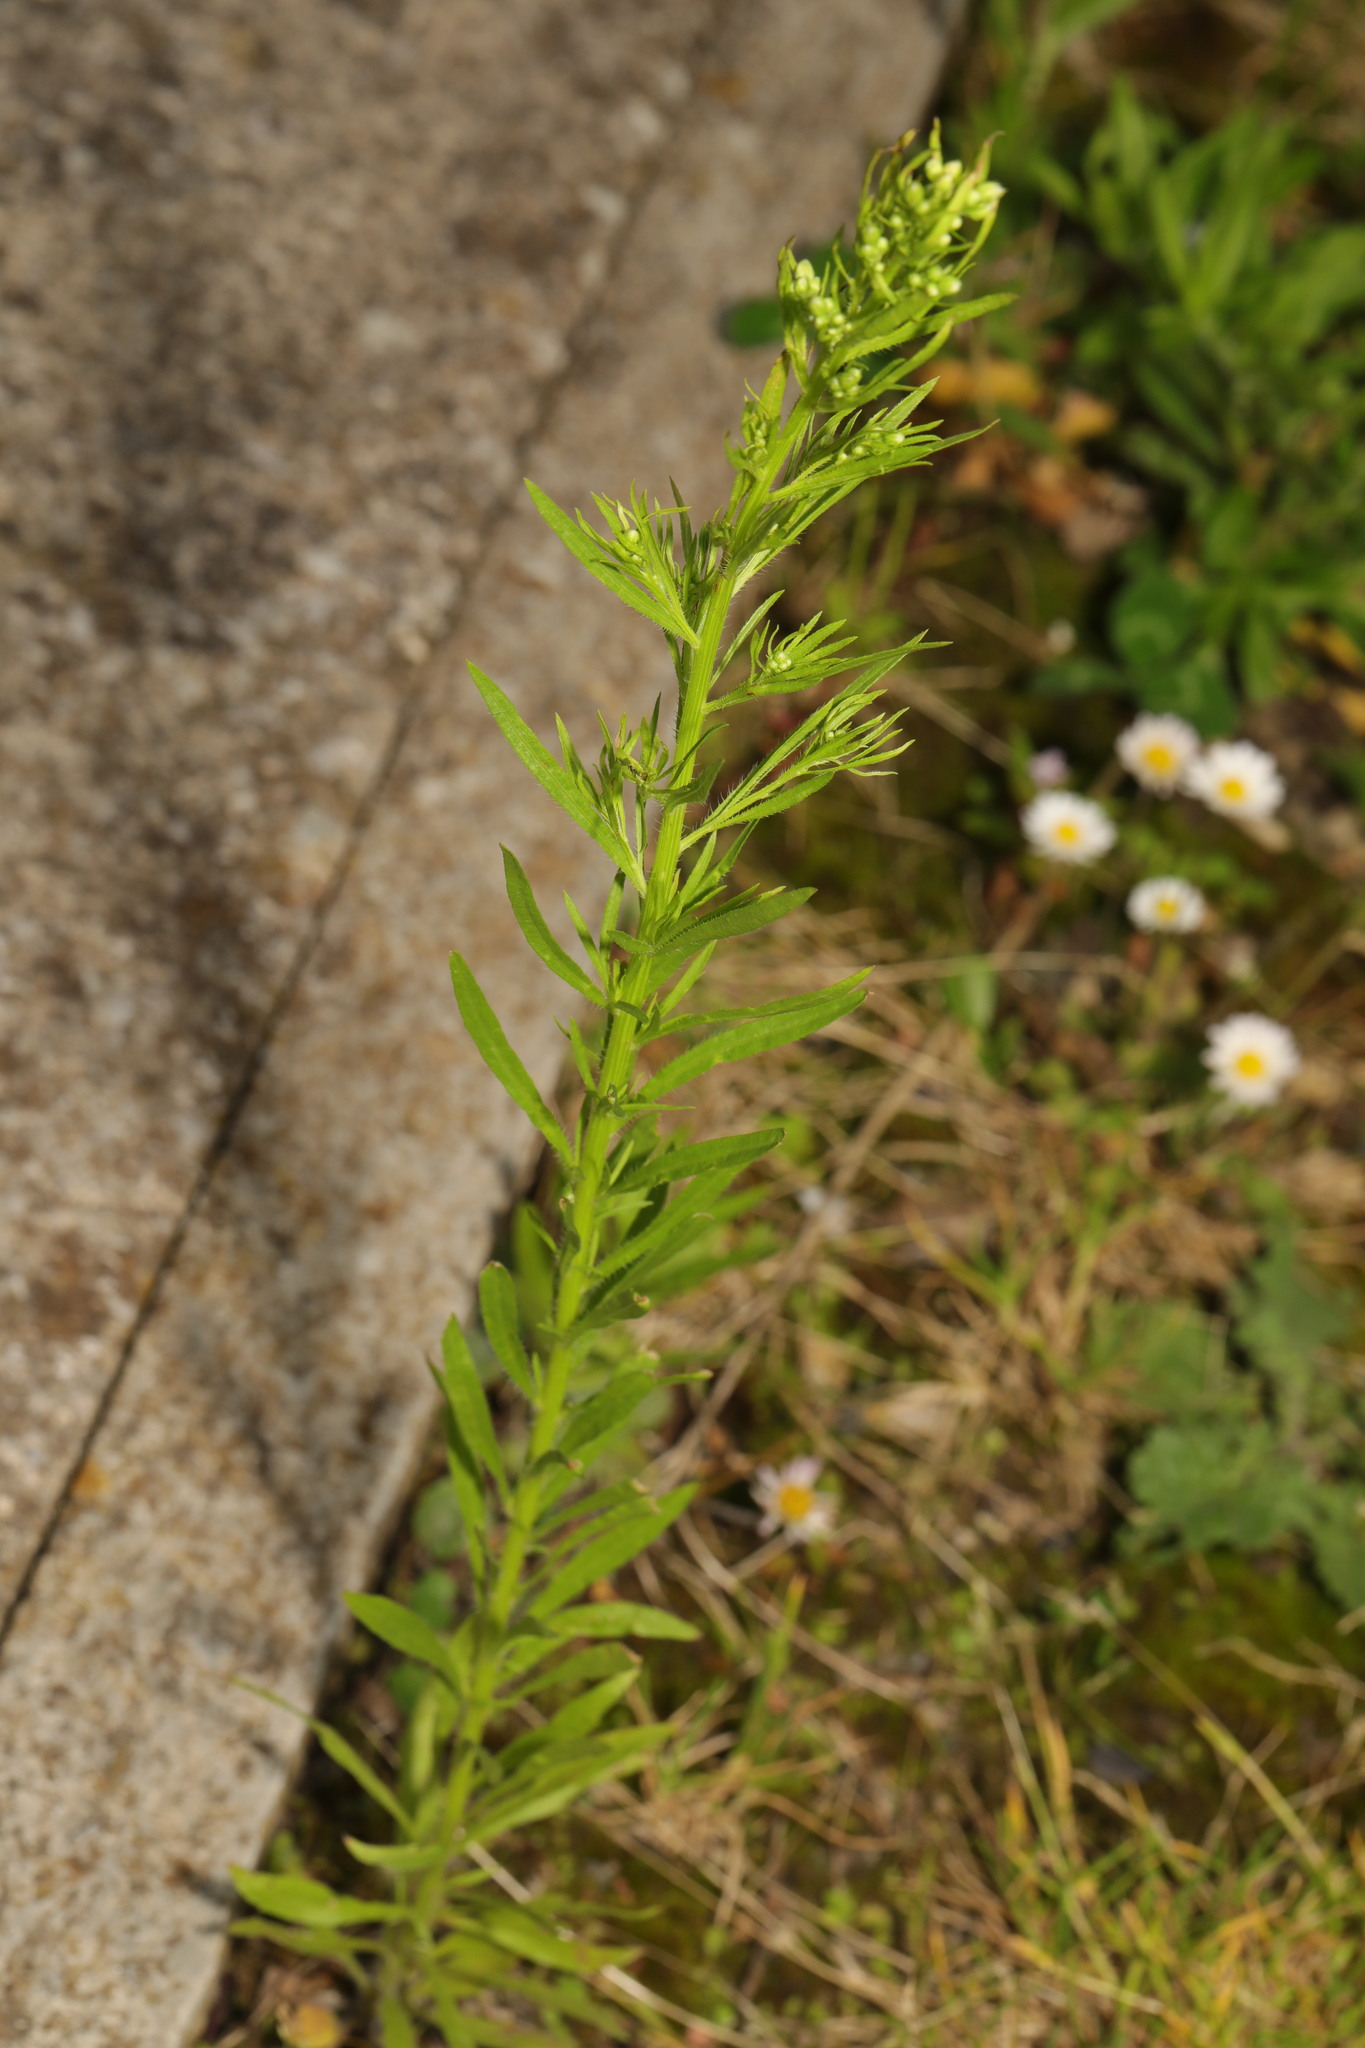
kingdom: Plantae
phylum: Tracheophyta
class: Magnoliopsida
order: Asterales
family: Asteraceae
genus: Erigeron
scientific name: Erigeron canadensis
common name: Canadian fleabane
